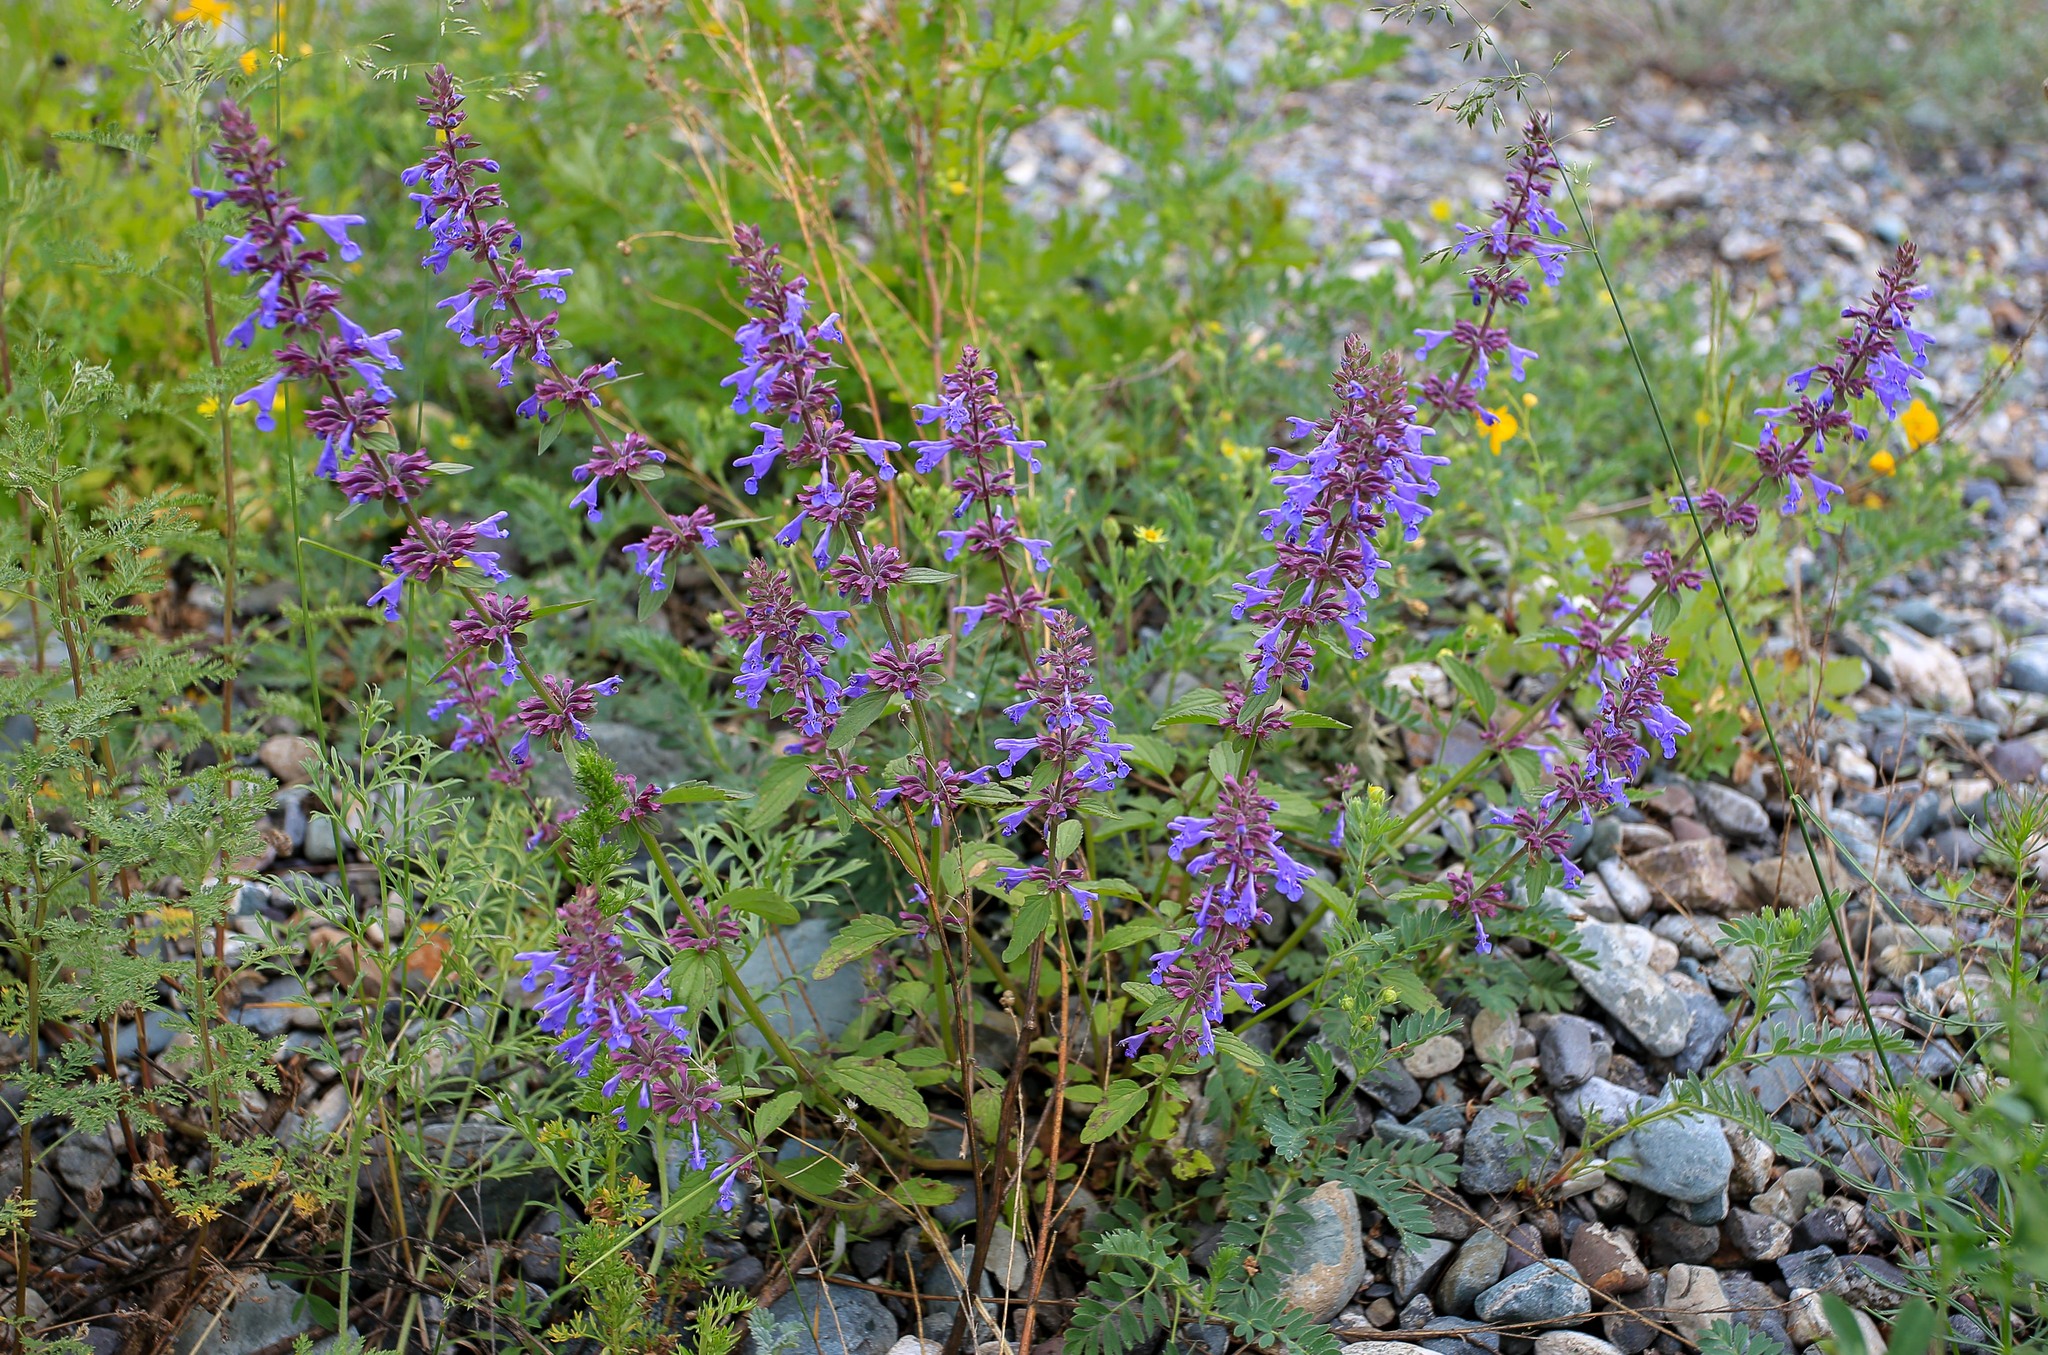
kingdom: Plantae
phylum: Tracheophyta
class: Magnoliopsida
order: Lamiales
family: Lamiaceae
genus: Dracocephalum
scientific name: Dracocephalum nutans
